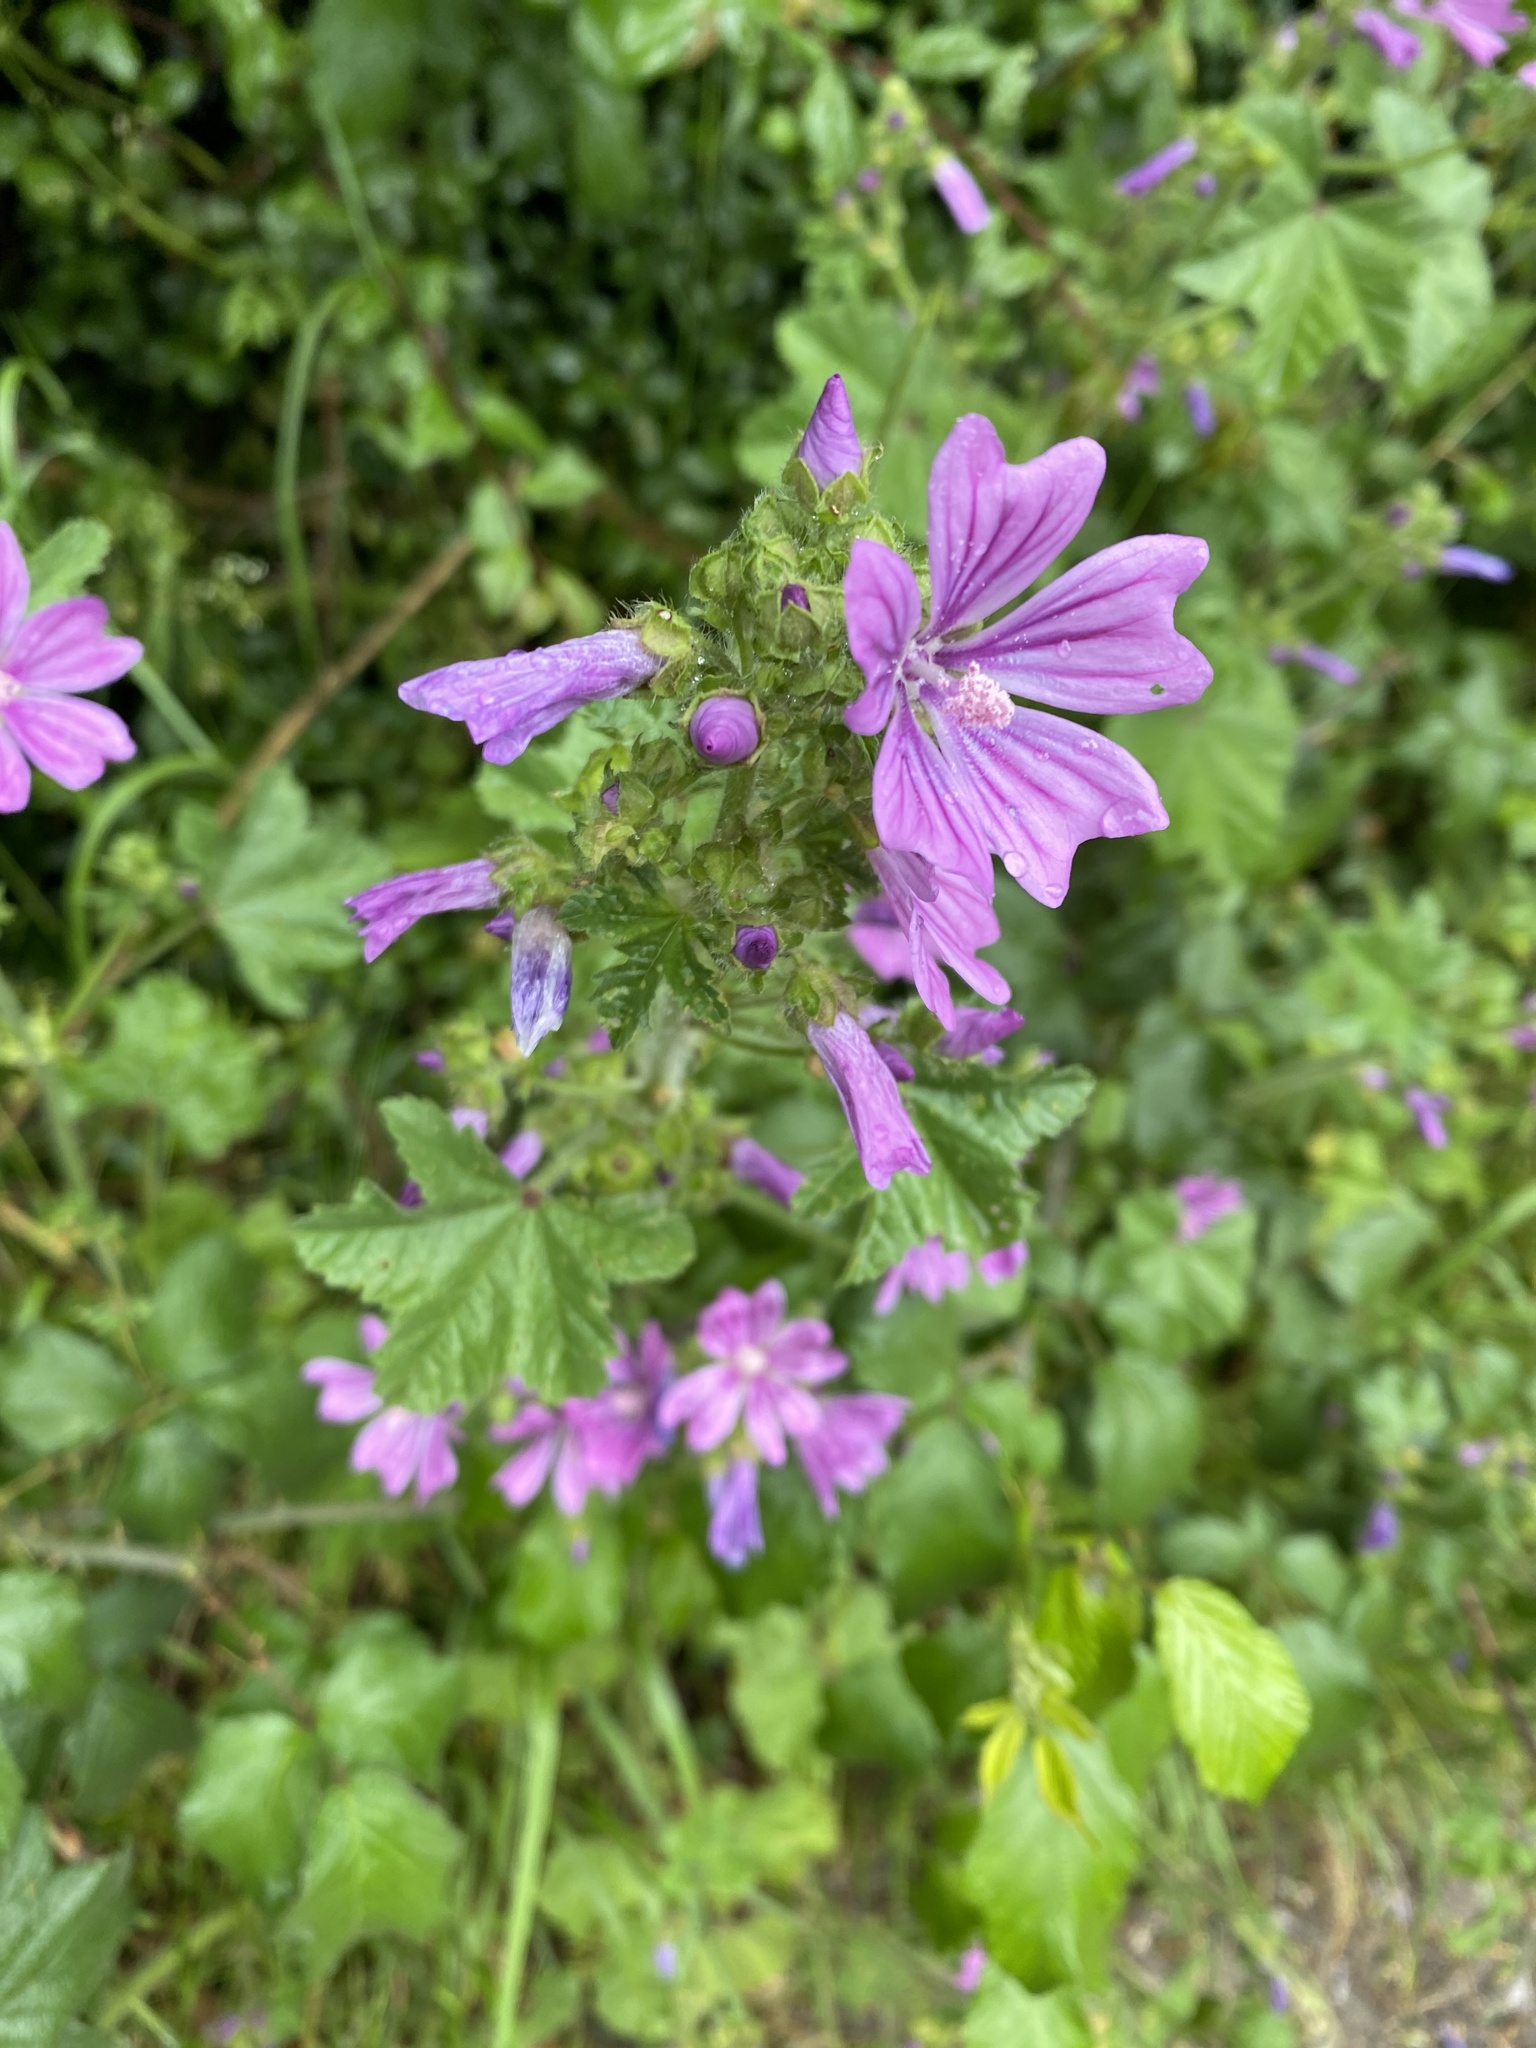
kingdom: Plantae
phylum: Tracheophyta
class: Magnoliopsida
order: Malvales
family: Malvaceae
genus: Malva
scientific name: Malva sylvestris
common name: Common mallow
